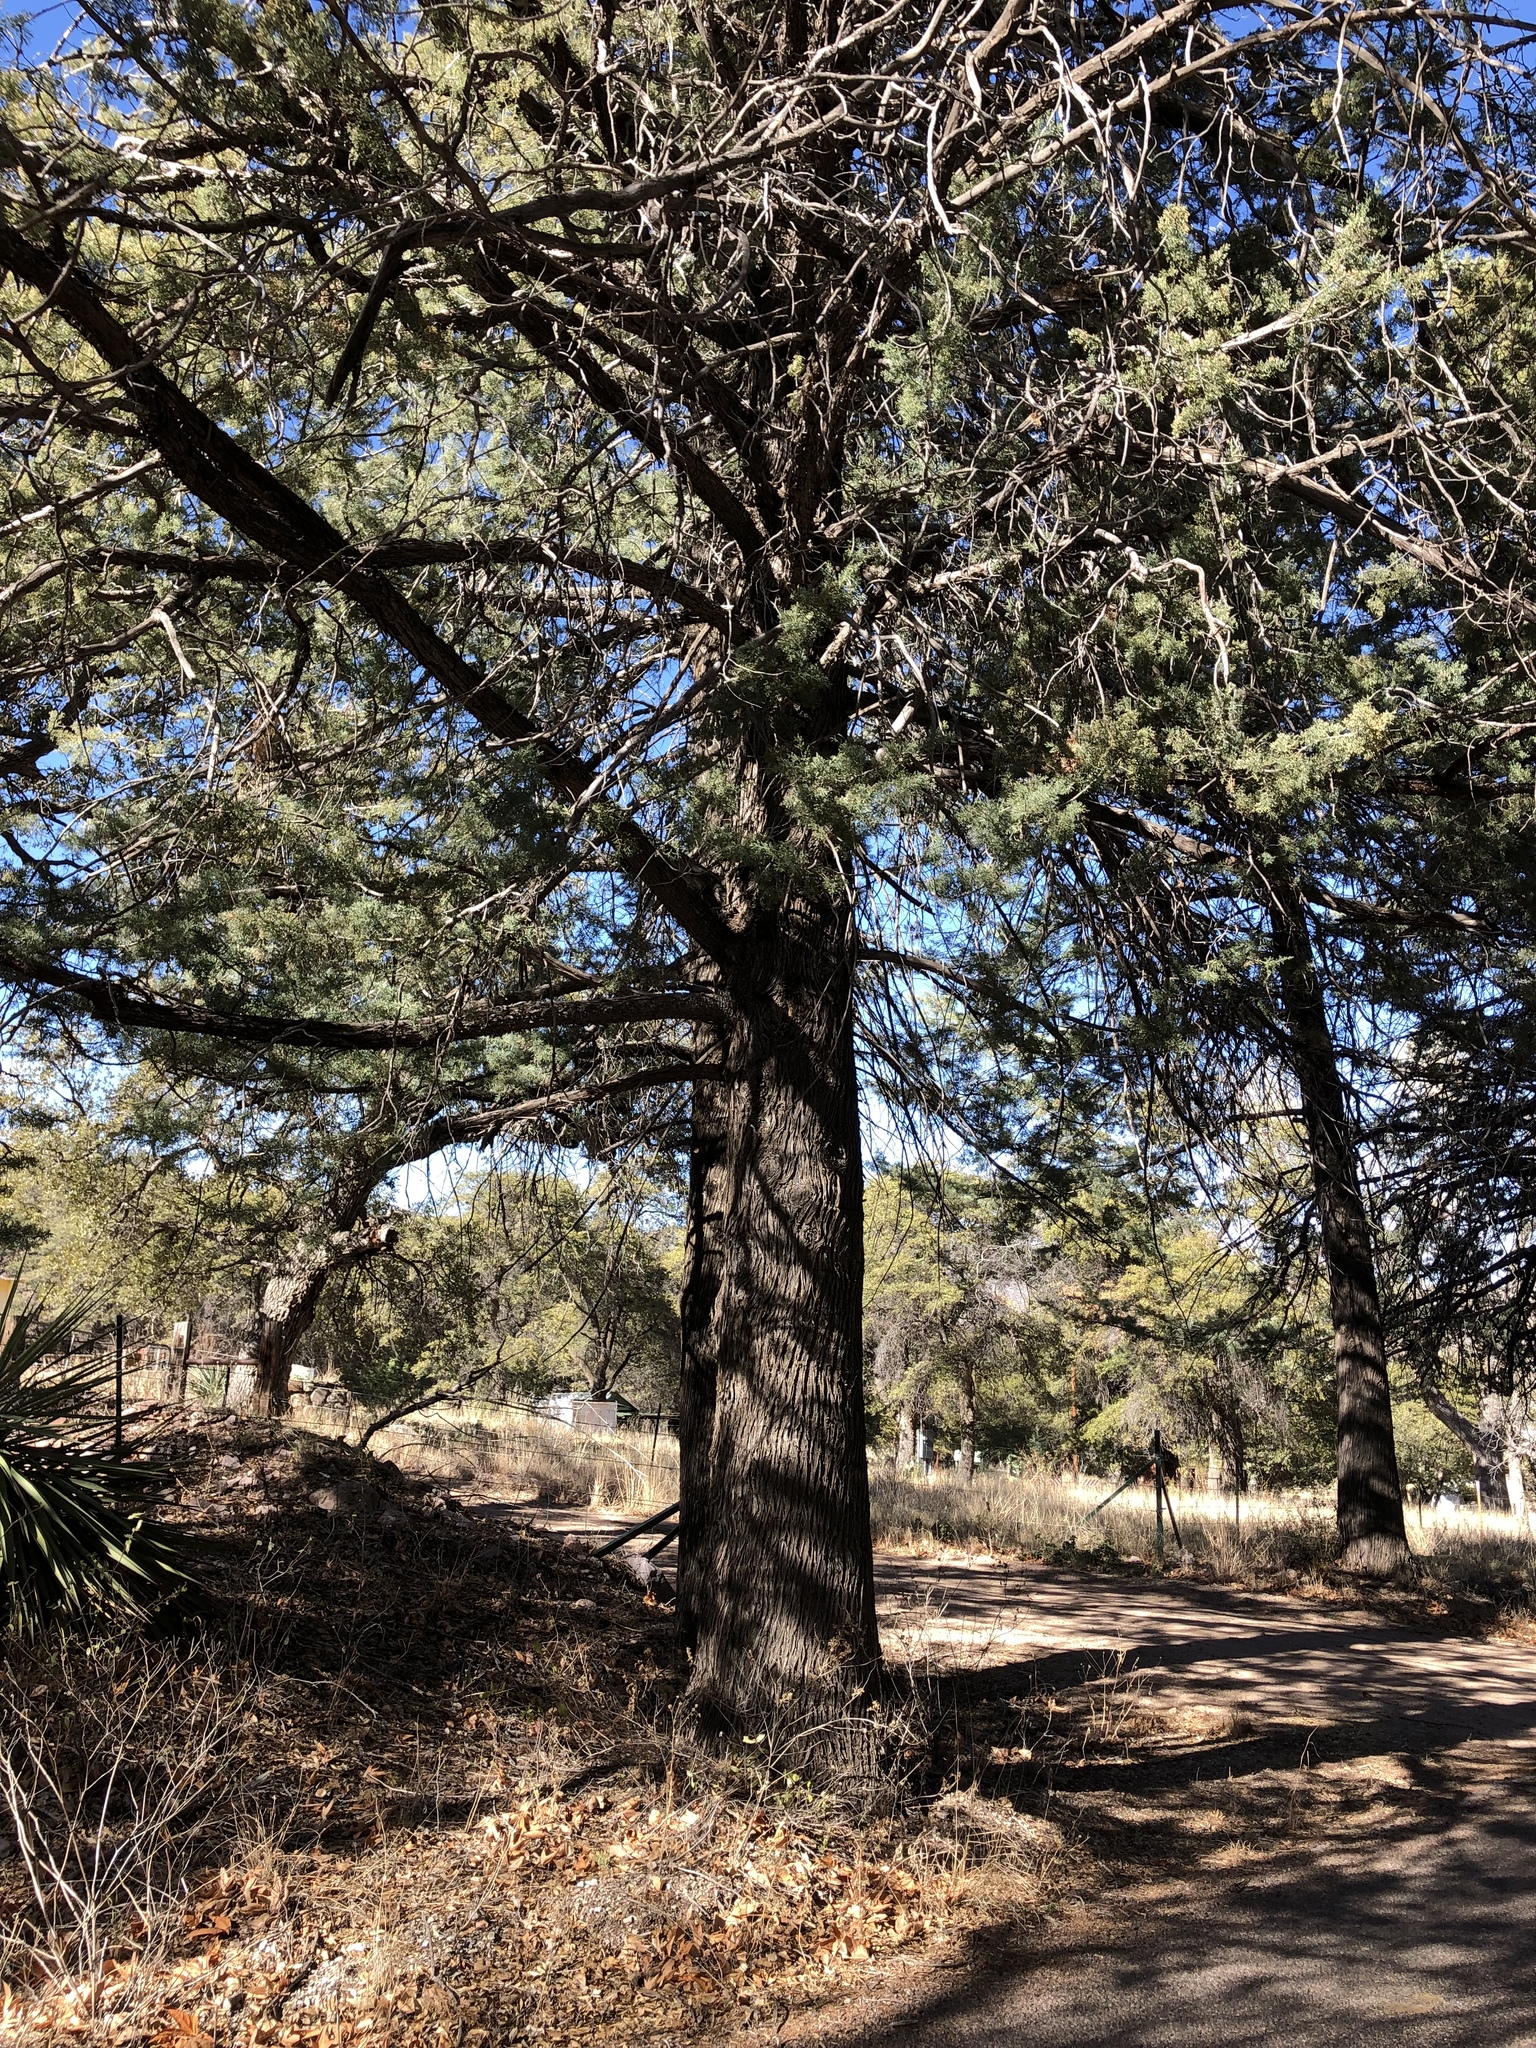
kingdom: Plantae
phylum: Tracheophyta
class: Pinopsida
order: Pinales
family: Cupressaceae
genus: Cupressus
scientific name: Cupressus arizonica
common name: Arizona cypress
